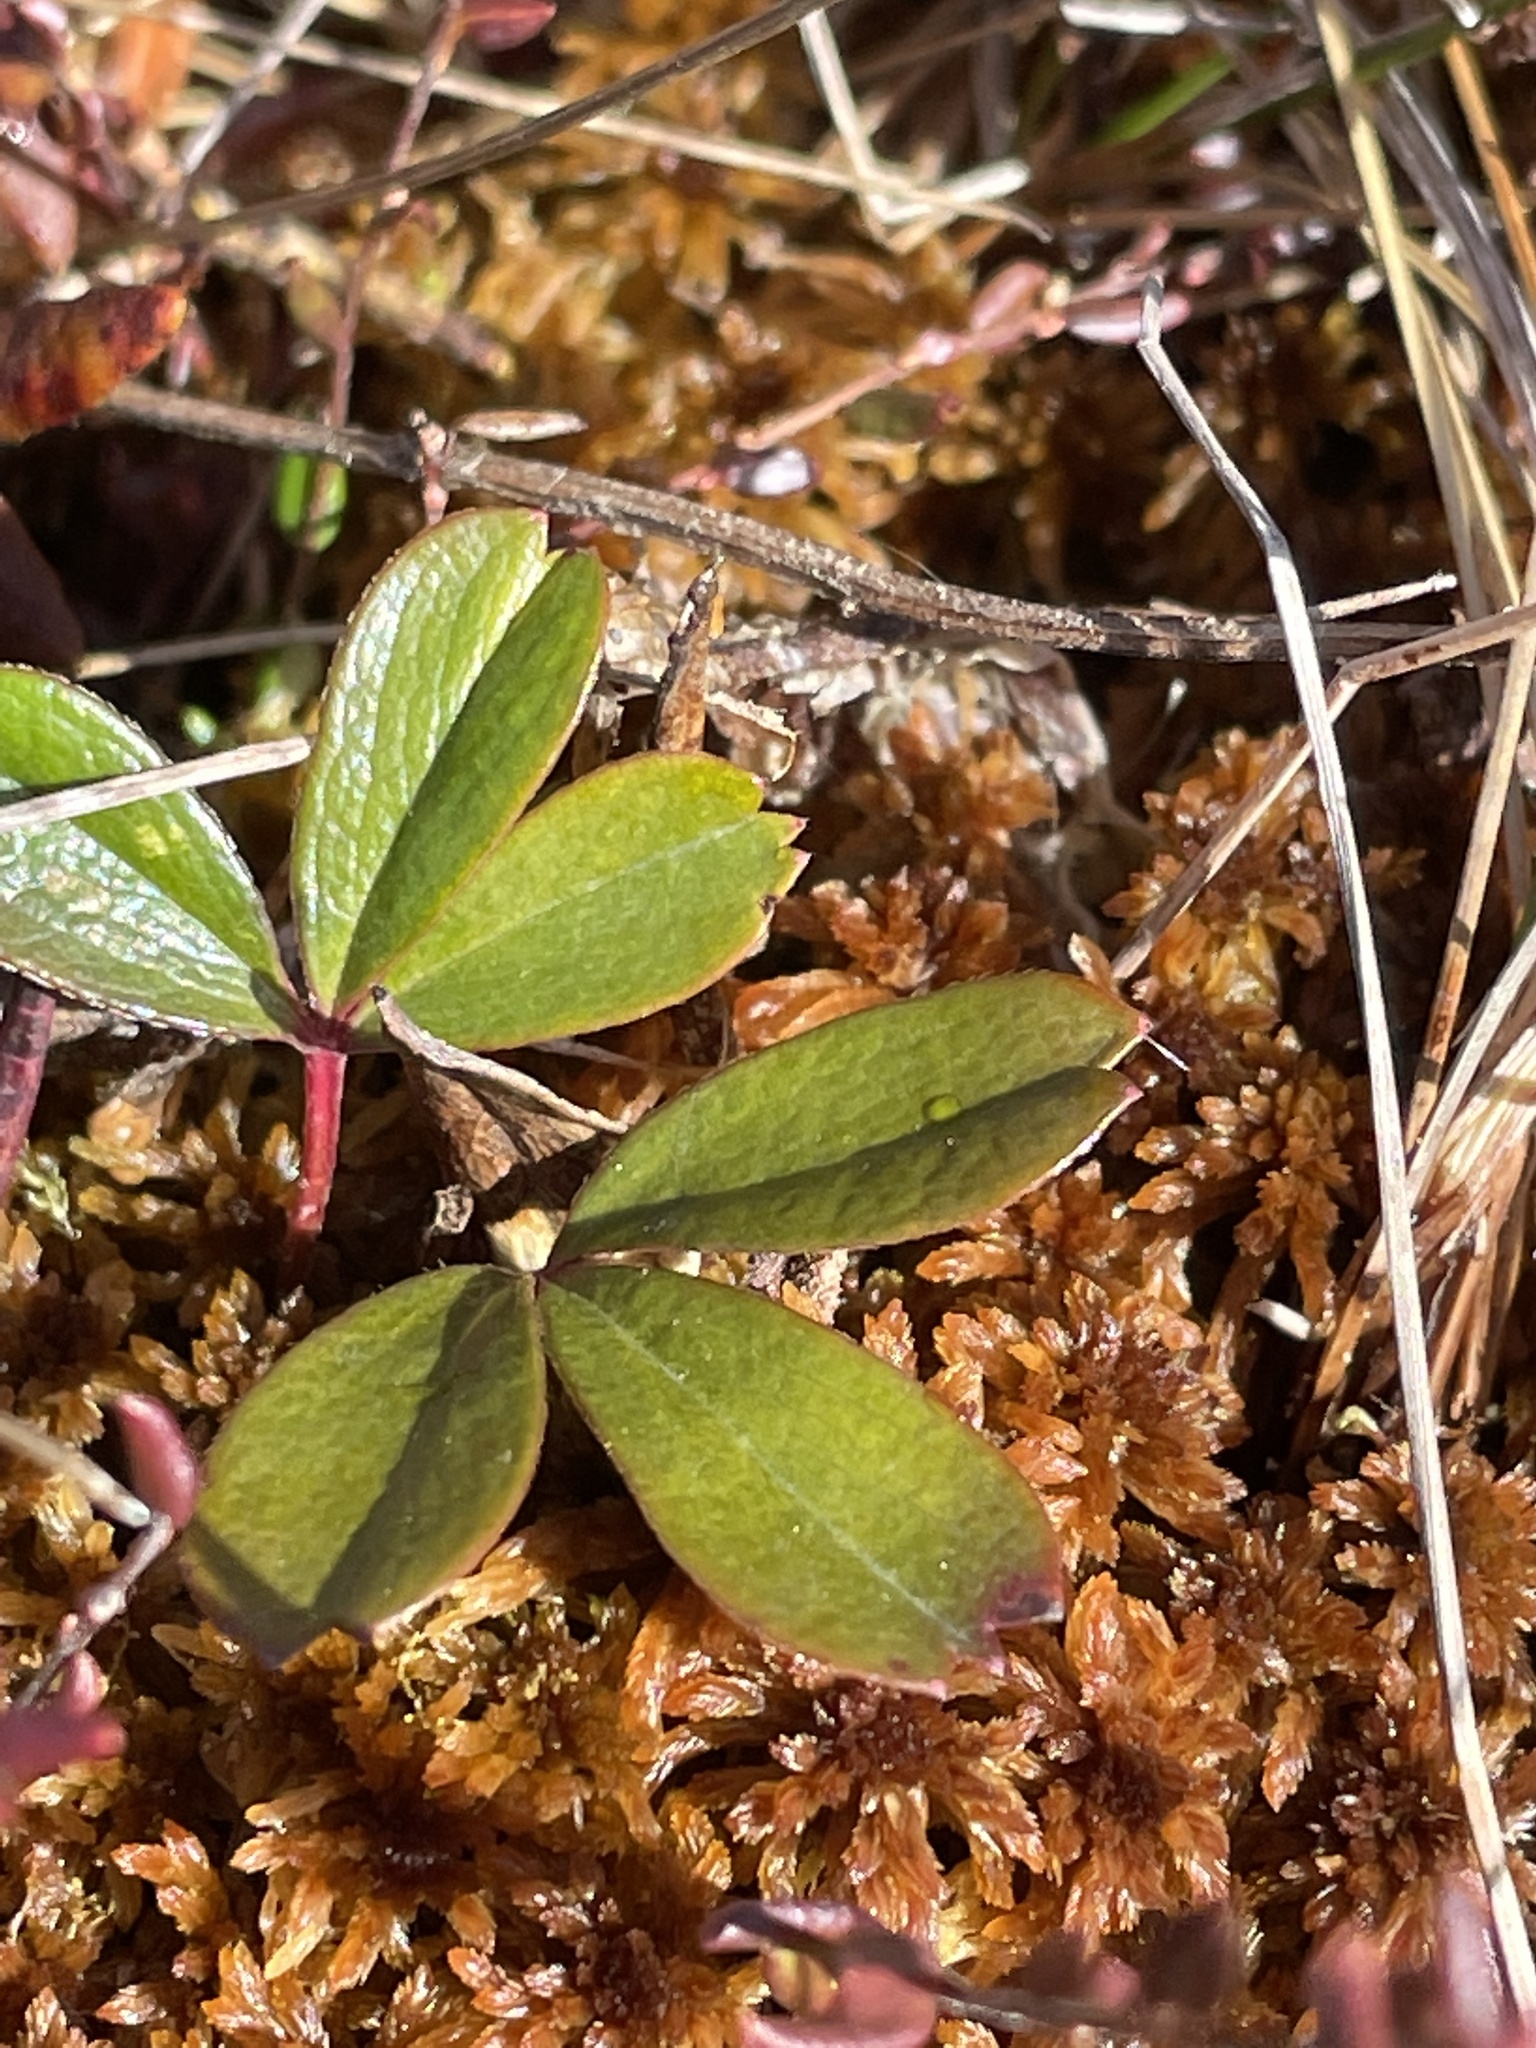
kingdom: Plantae
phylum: Tracheophyta
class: Magnoliopsida
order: Rosales
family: Rosaceae
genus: Sibbaldia
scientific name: Sibbaldia tridentata
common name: Three-toothed cinquefoil
